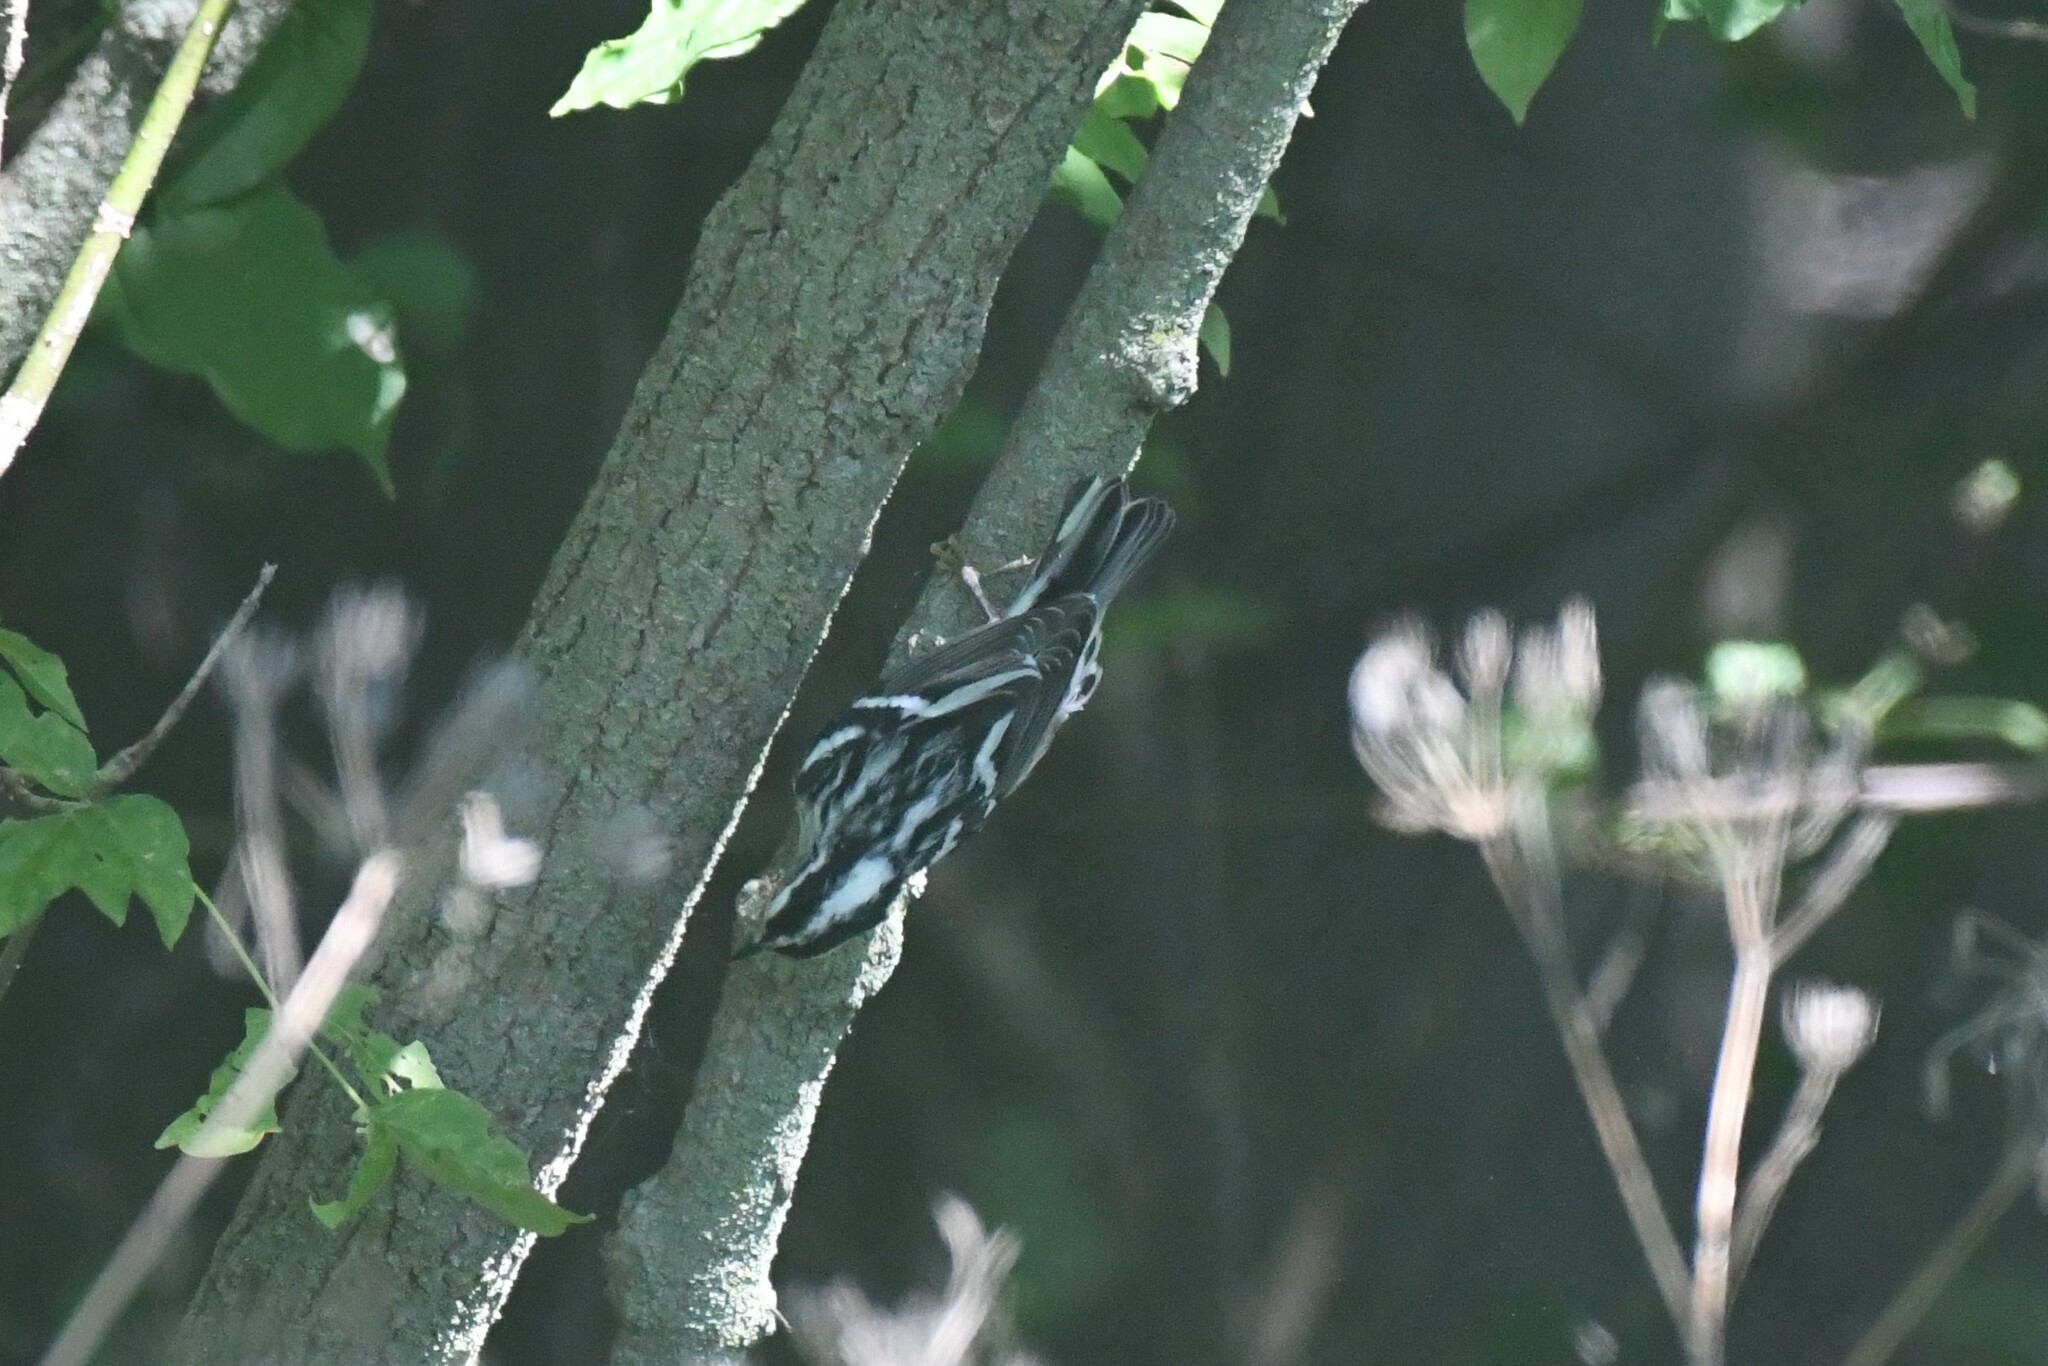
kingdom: Animalia
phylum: Chordata
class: Aves
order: Passeriformes
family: Parulidae
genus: Mniotilta
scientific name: Mniotilta varia
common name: Black-and-white warbler
